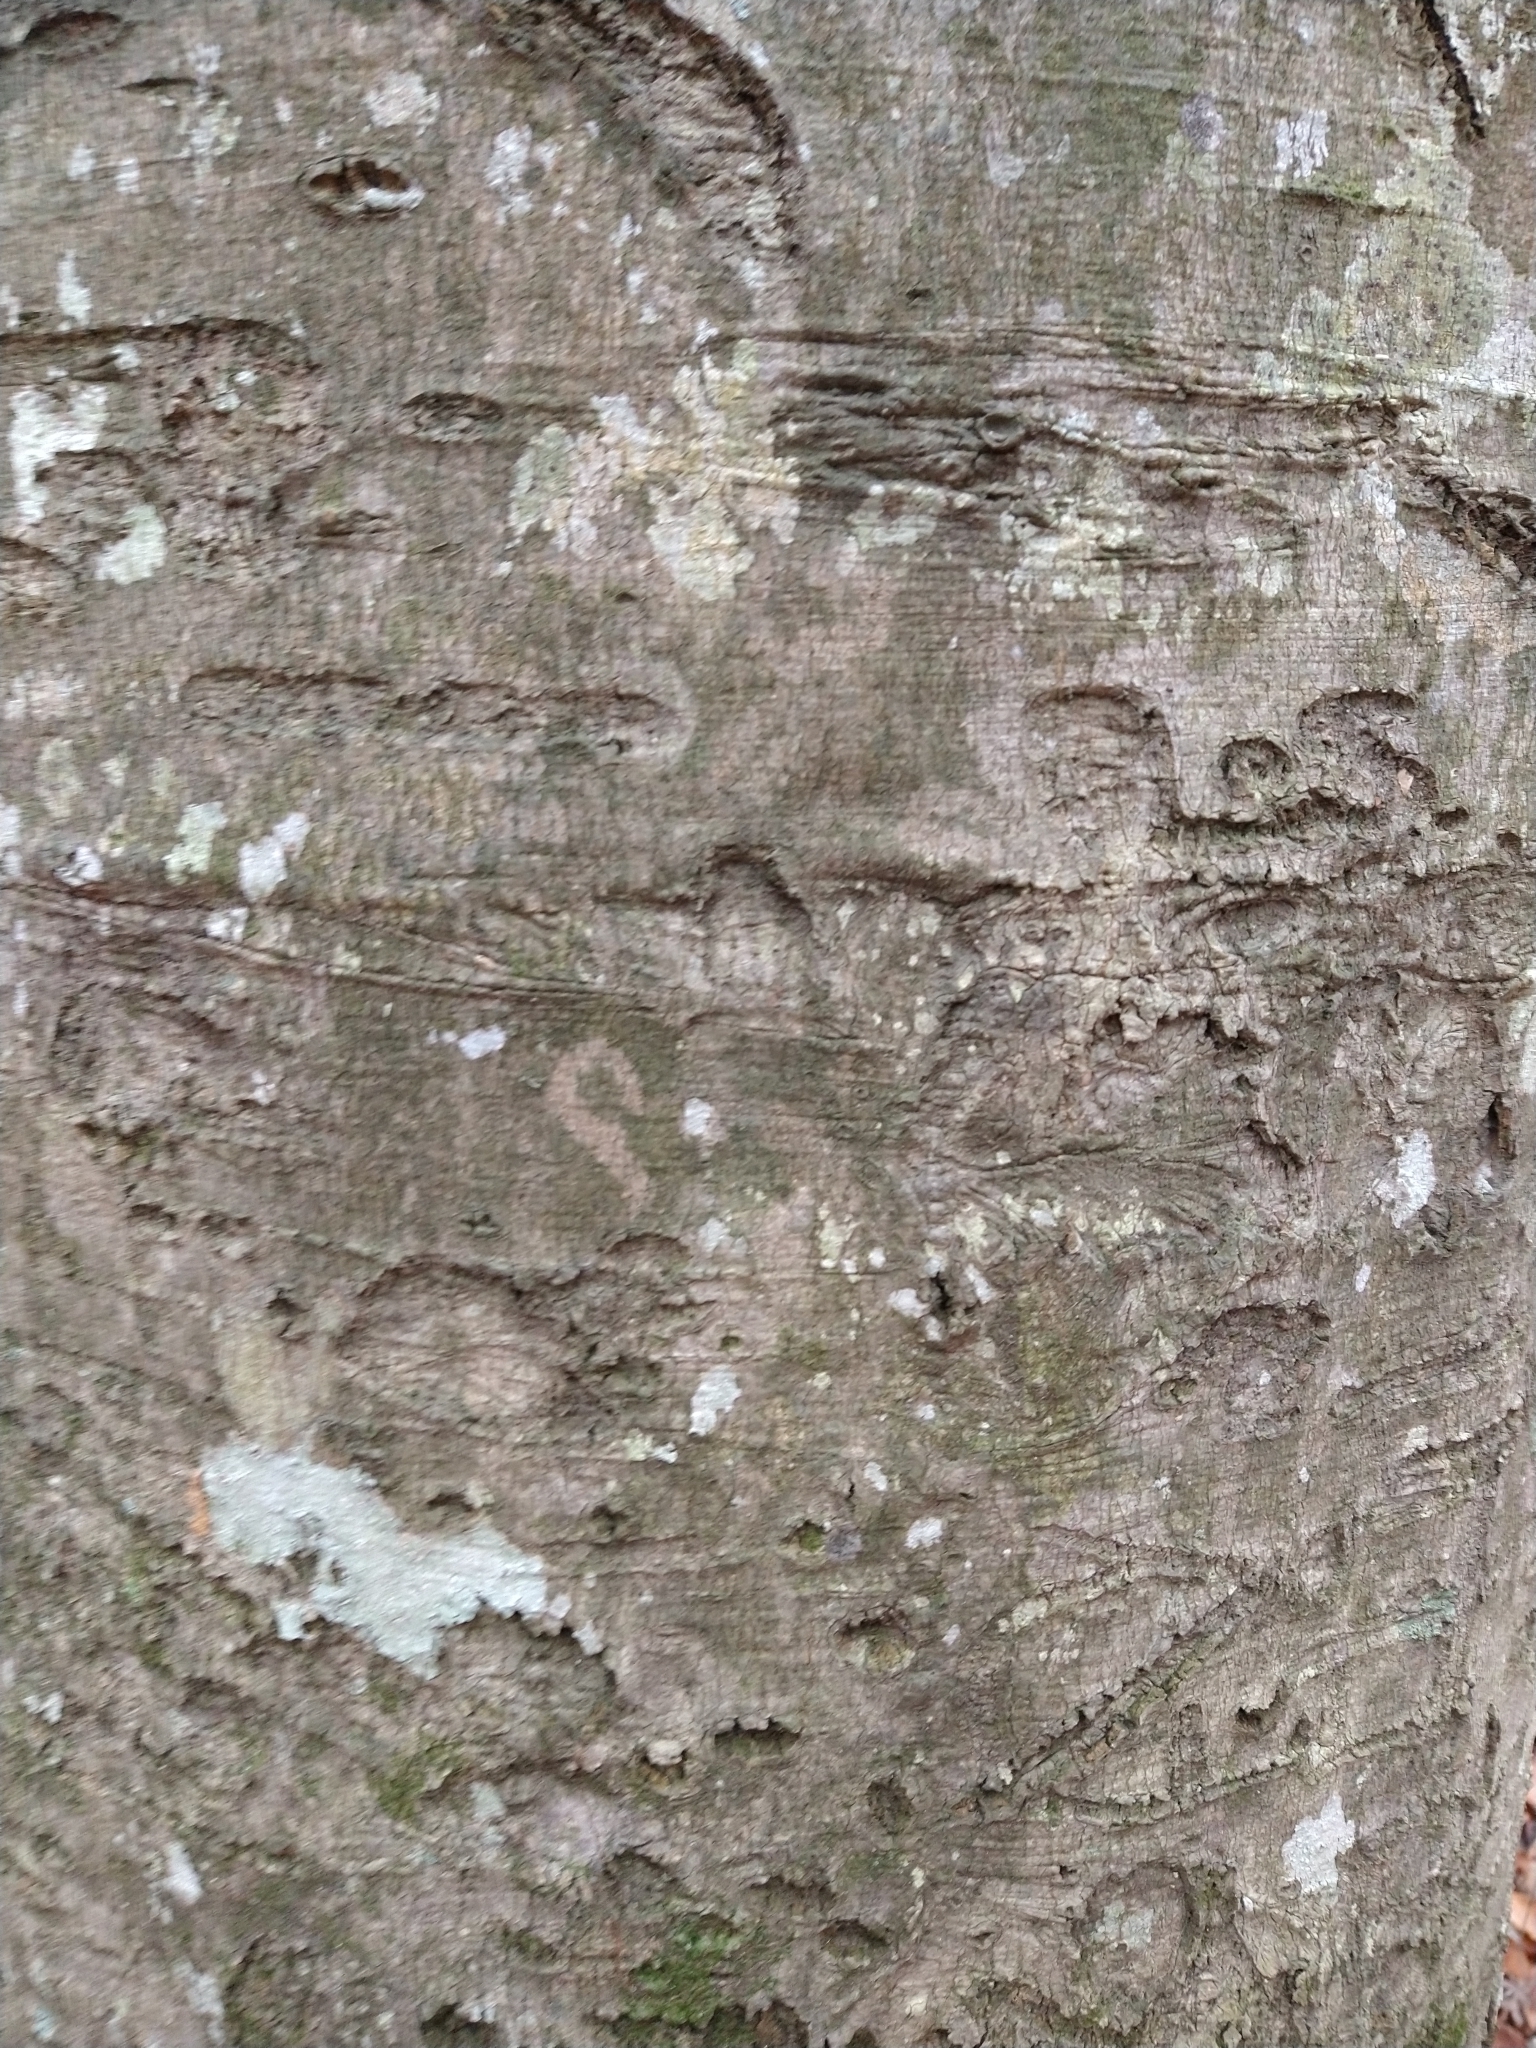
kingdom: Plantae
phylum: Tracheophyta
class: Magnoliopsida
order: Fagales
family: Fagaceae
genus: Fagus
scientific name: Fagus grandifolia
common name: American beech
